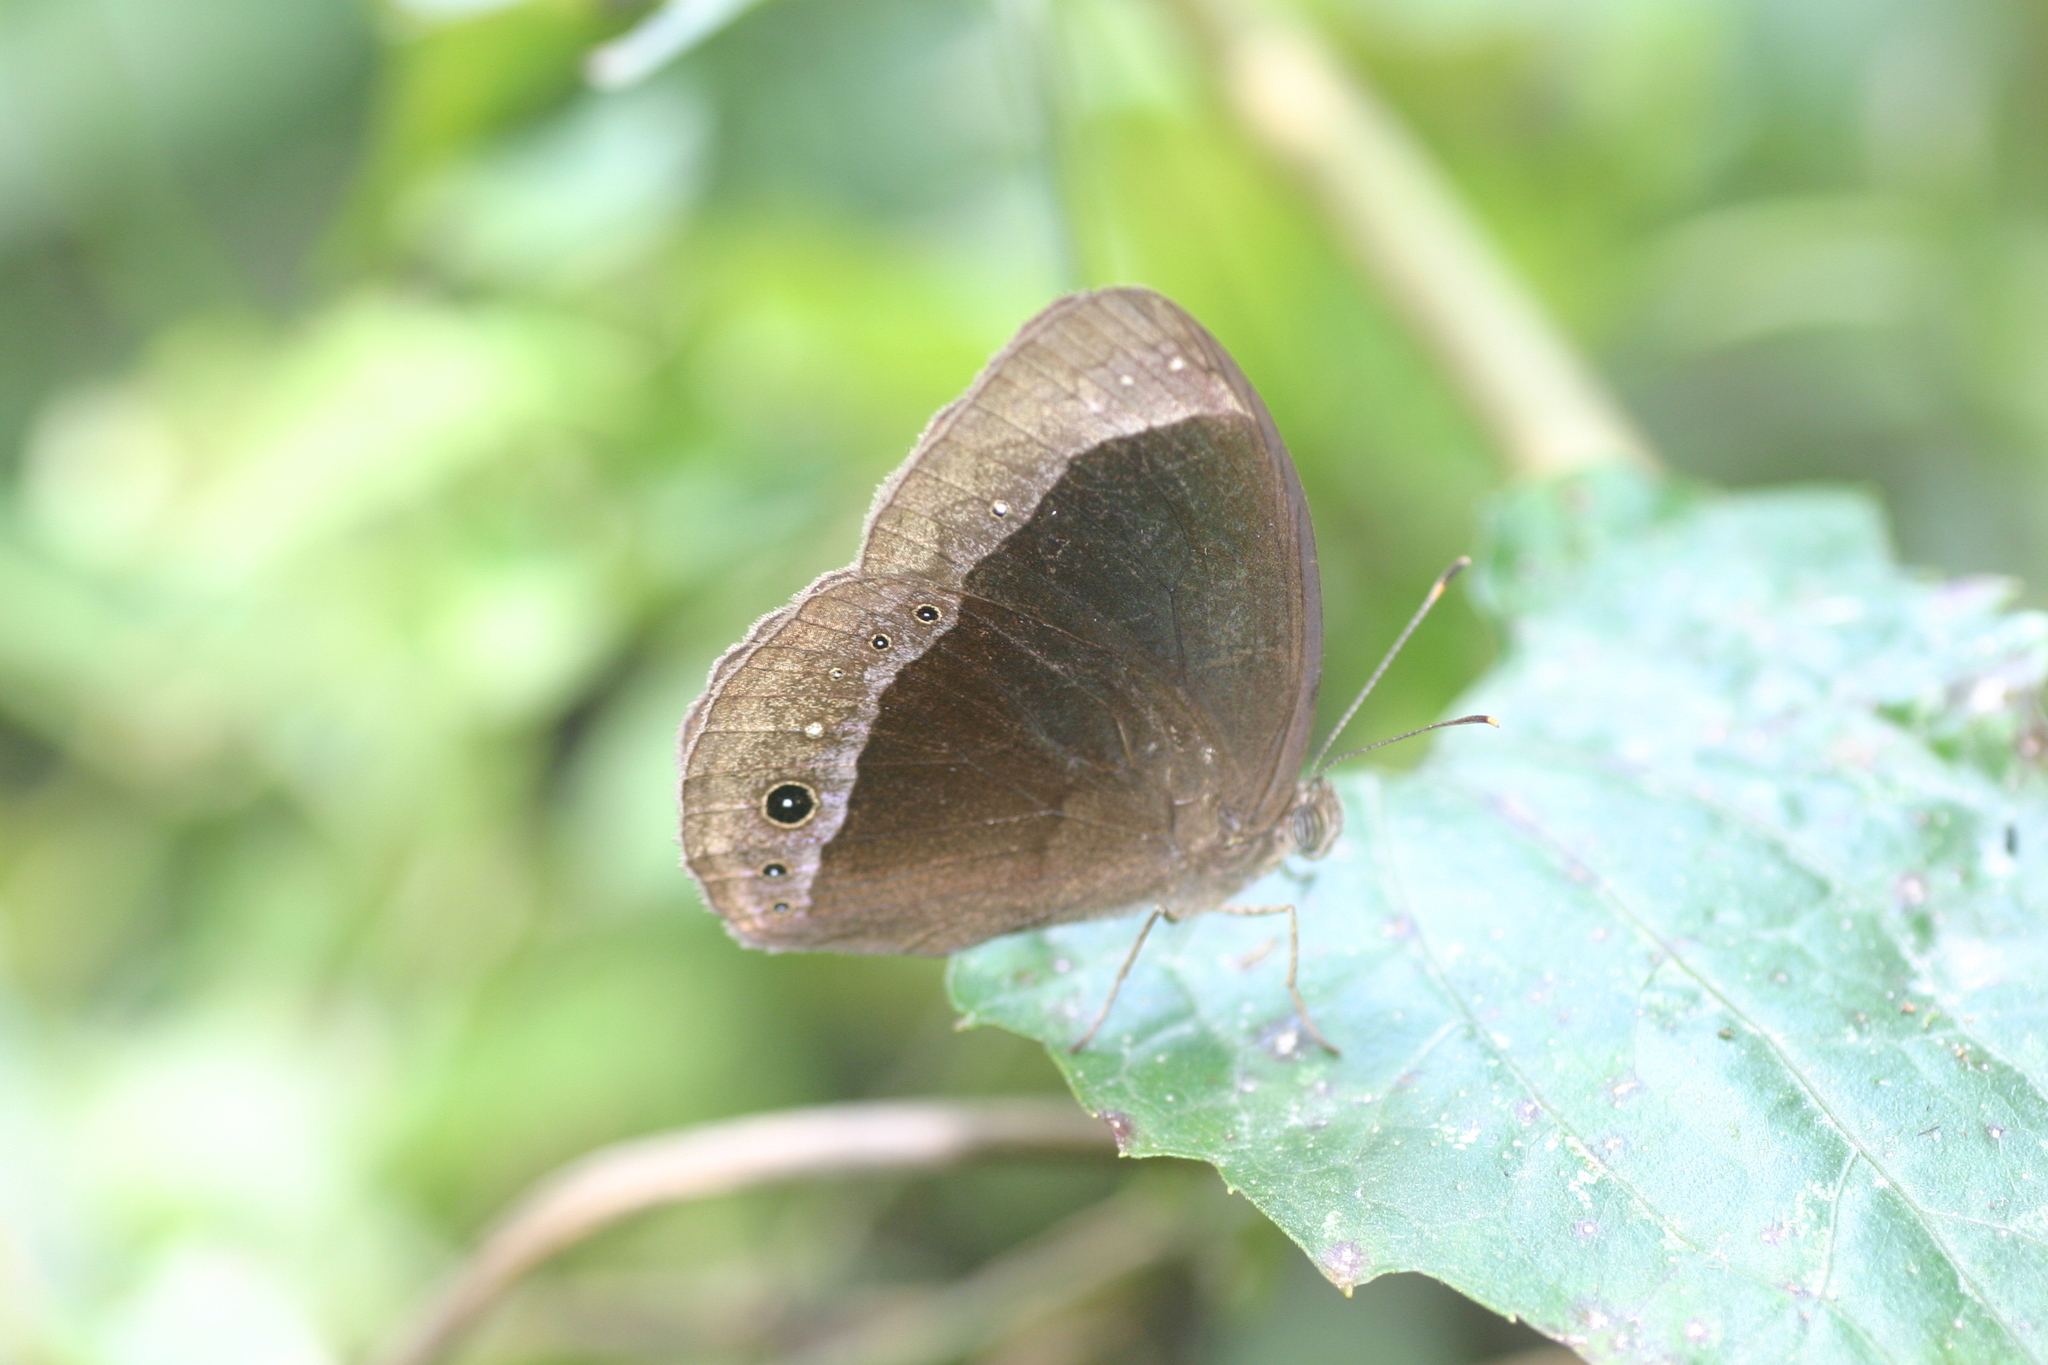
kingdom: Animalia
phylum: Arthropoda
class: Insecta
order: Lepidoptera
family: Nymphalidae
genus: Mycalesis
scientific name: Mycalesis adamsoni
